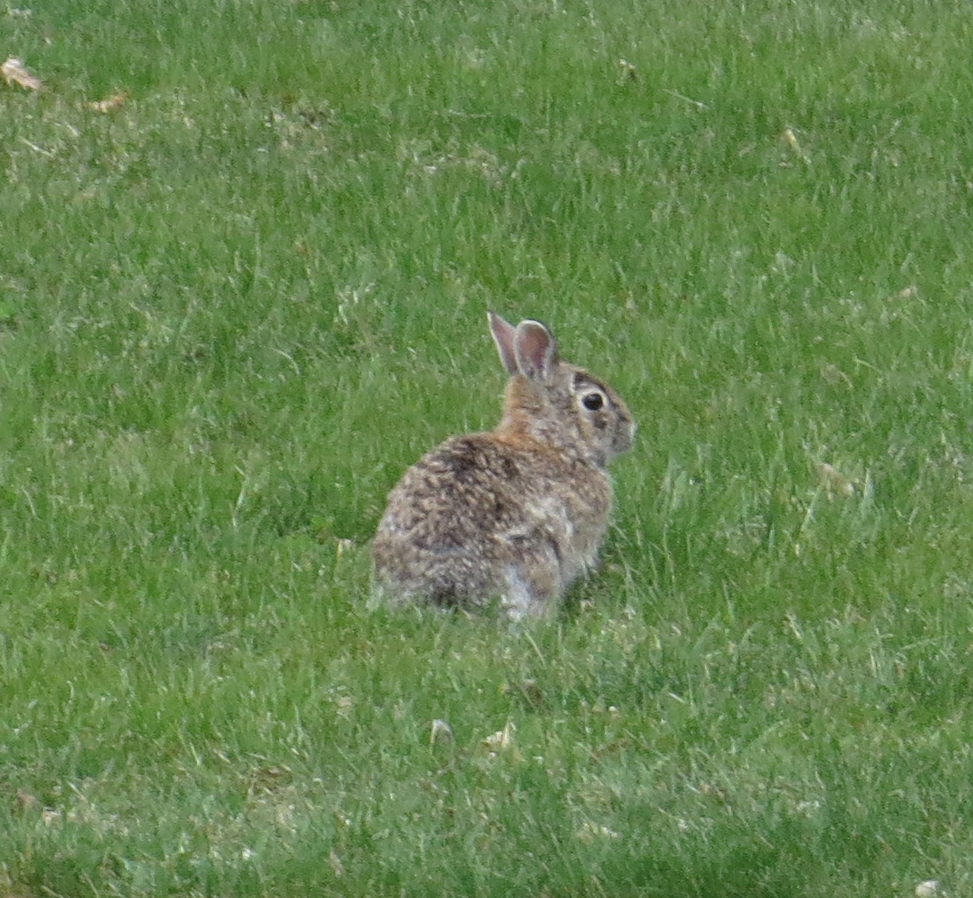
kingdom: Animalia
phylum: Chordata
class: Mammalia
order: Lagomorpha
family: Leporidae
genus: Sylvilagus
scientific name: Sylvilagus floridanus
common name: Eastern cottontail
